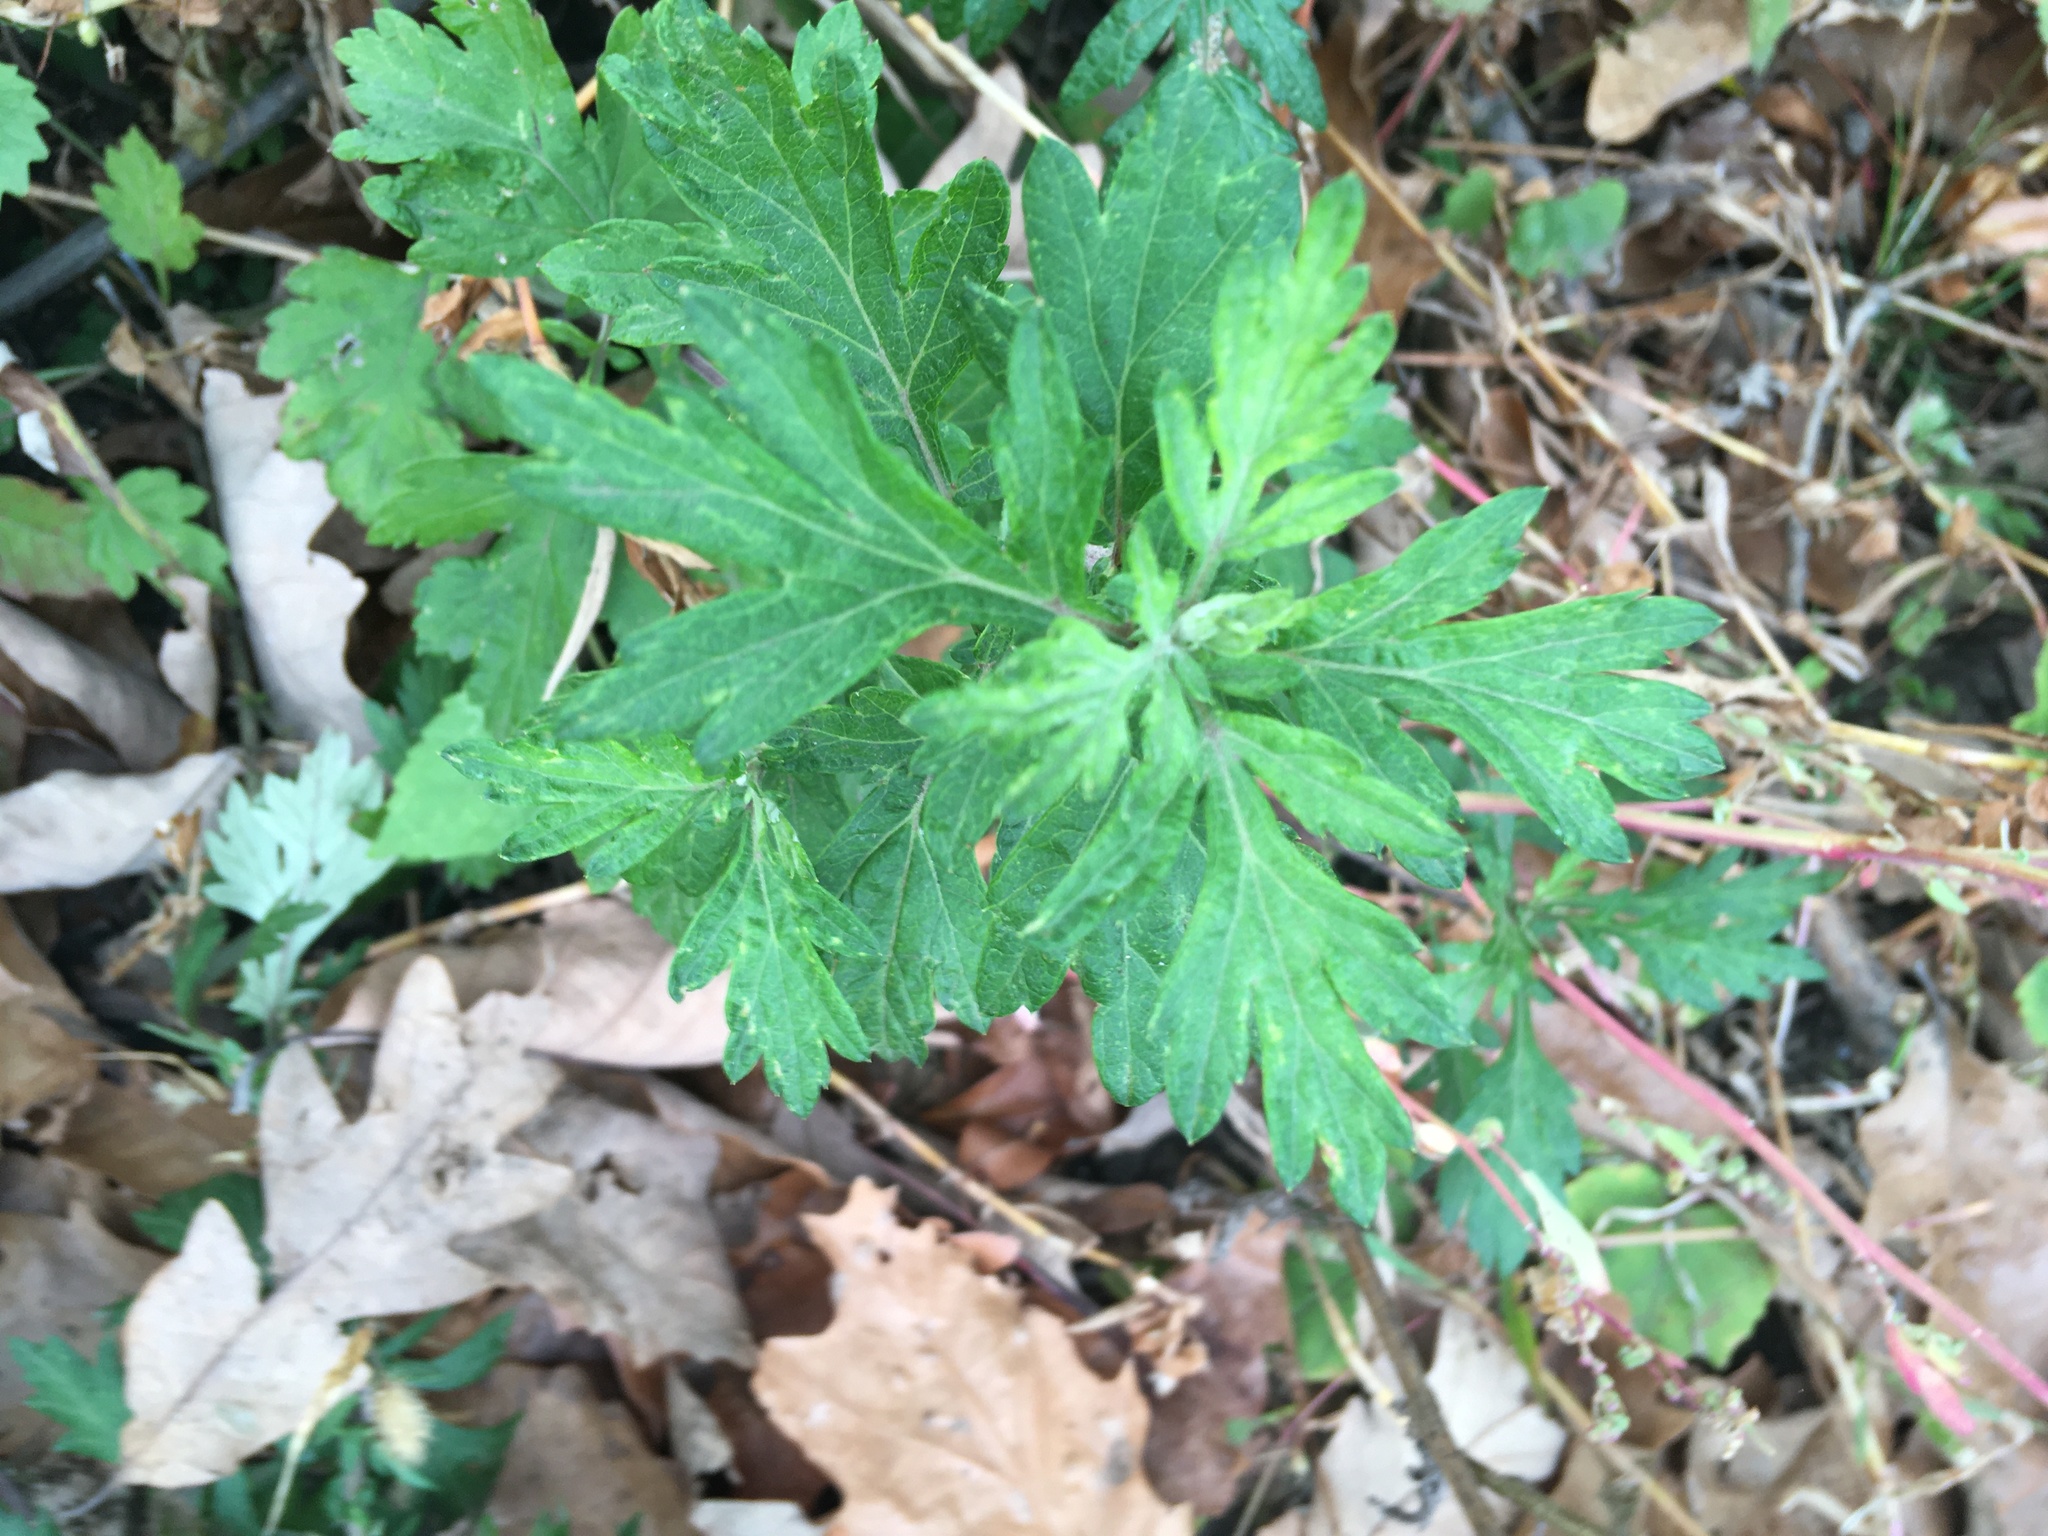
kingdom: Plantae
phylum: Tracheophyta
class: Magnoliopsida
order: Asterales
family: Asteraceae
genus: Artemisia
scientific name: Artemisia vulgaris
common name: Mugwort
